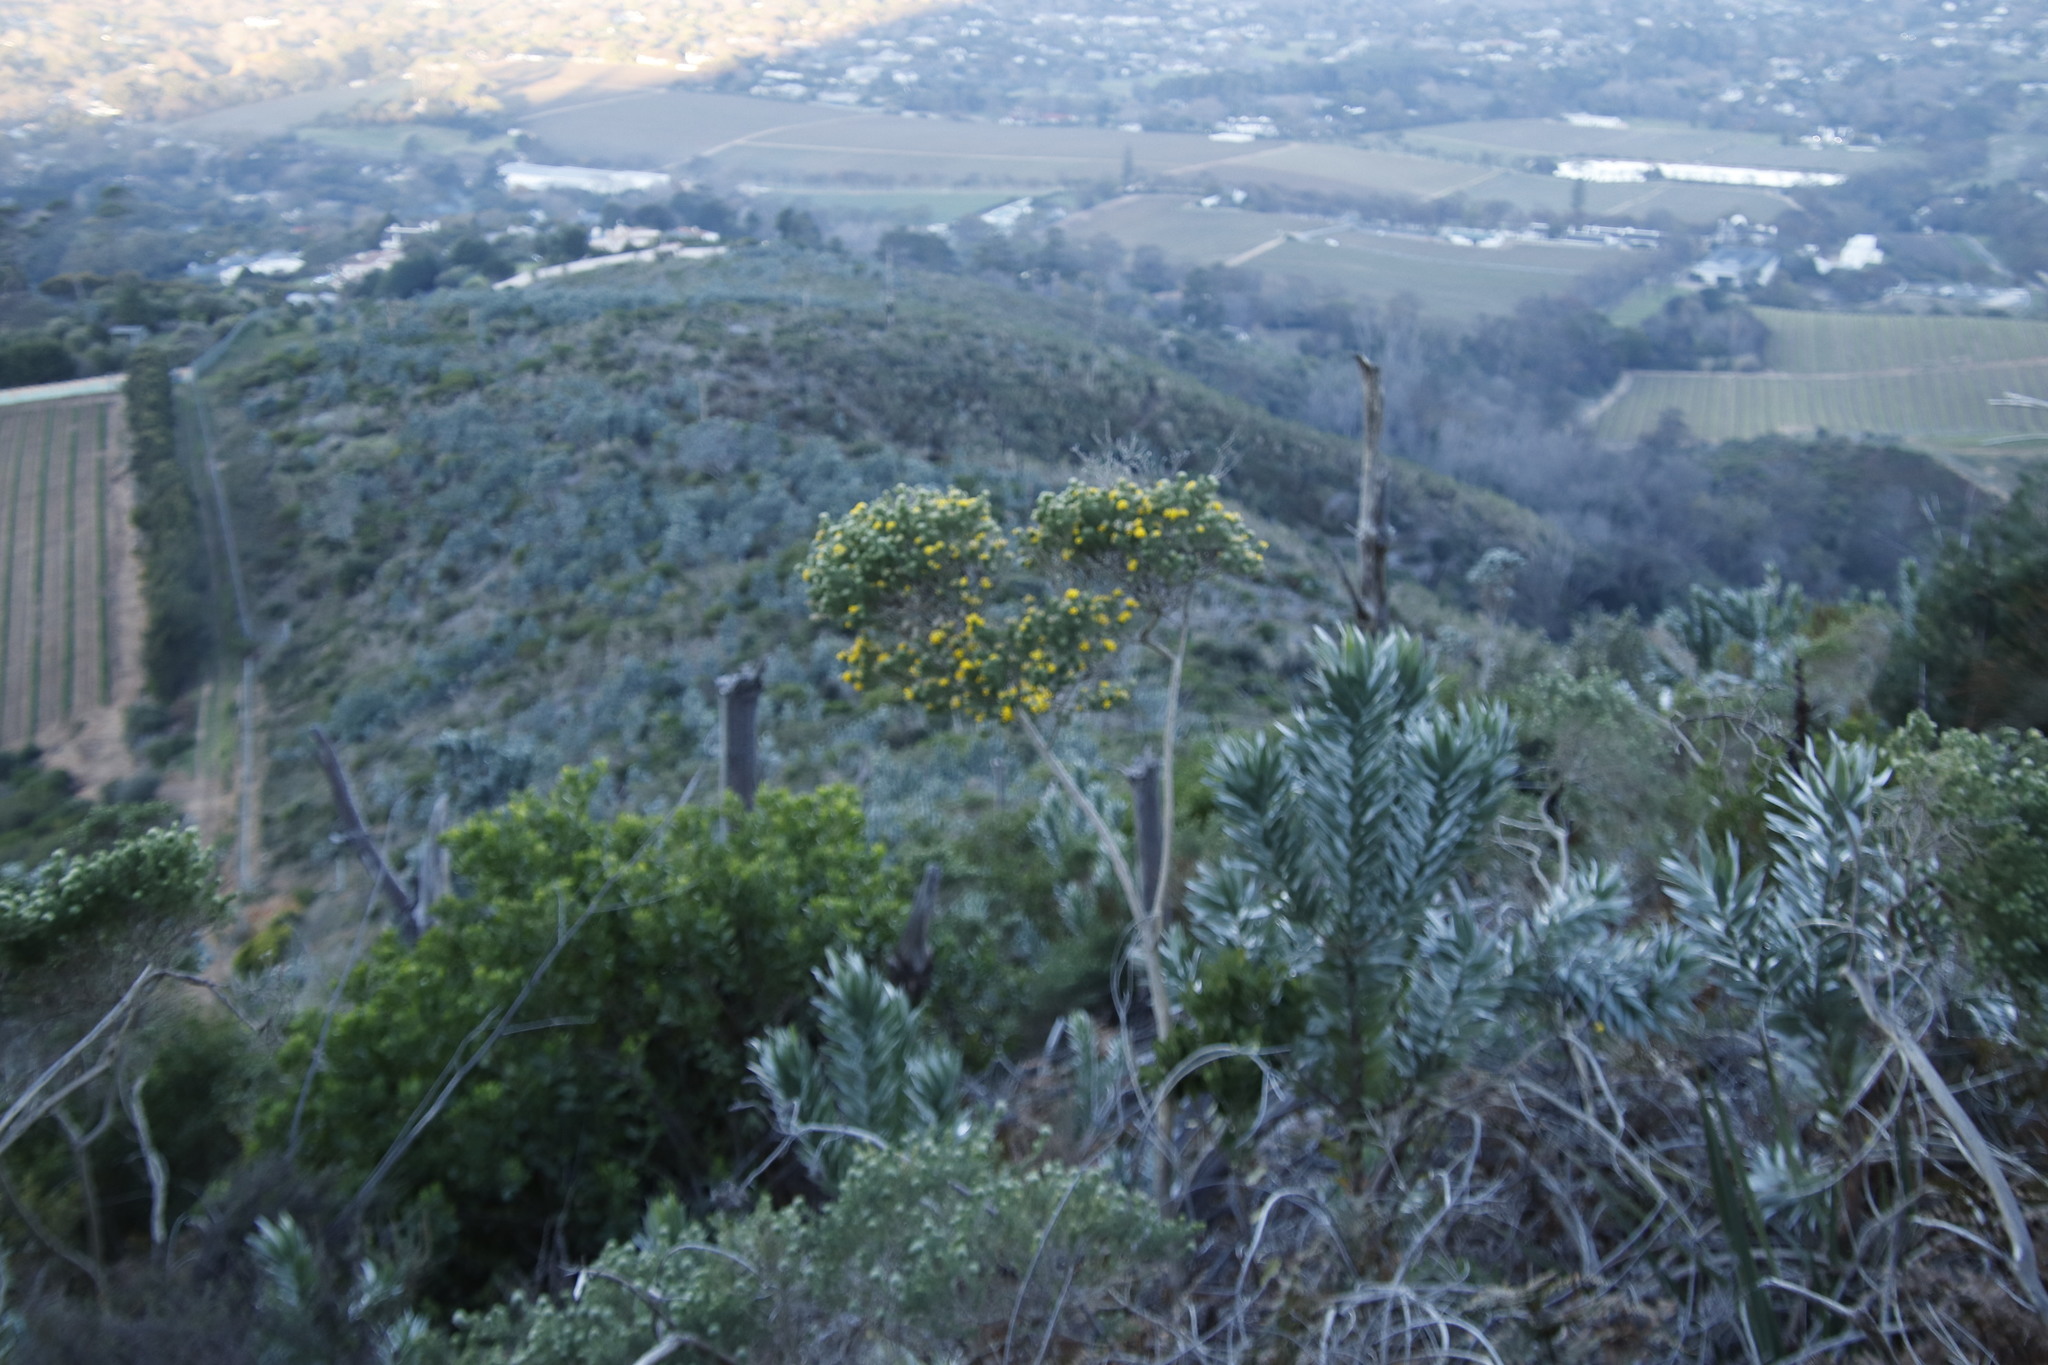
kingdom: Plantae
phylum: Tracheophyta
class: Magnoliopsida
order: Fabales
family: Fabaceae
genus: Aspalathus
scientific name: Aspalathus chenopoda
